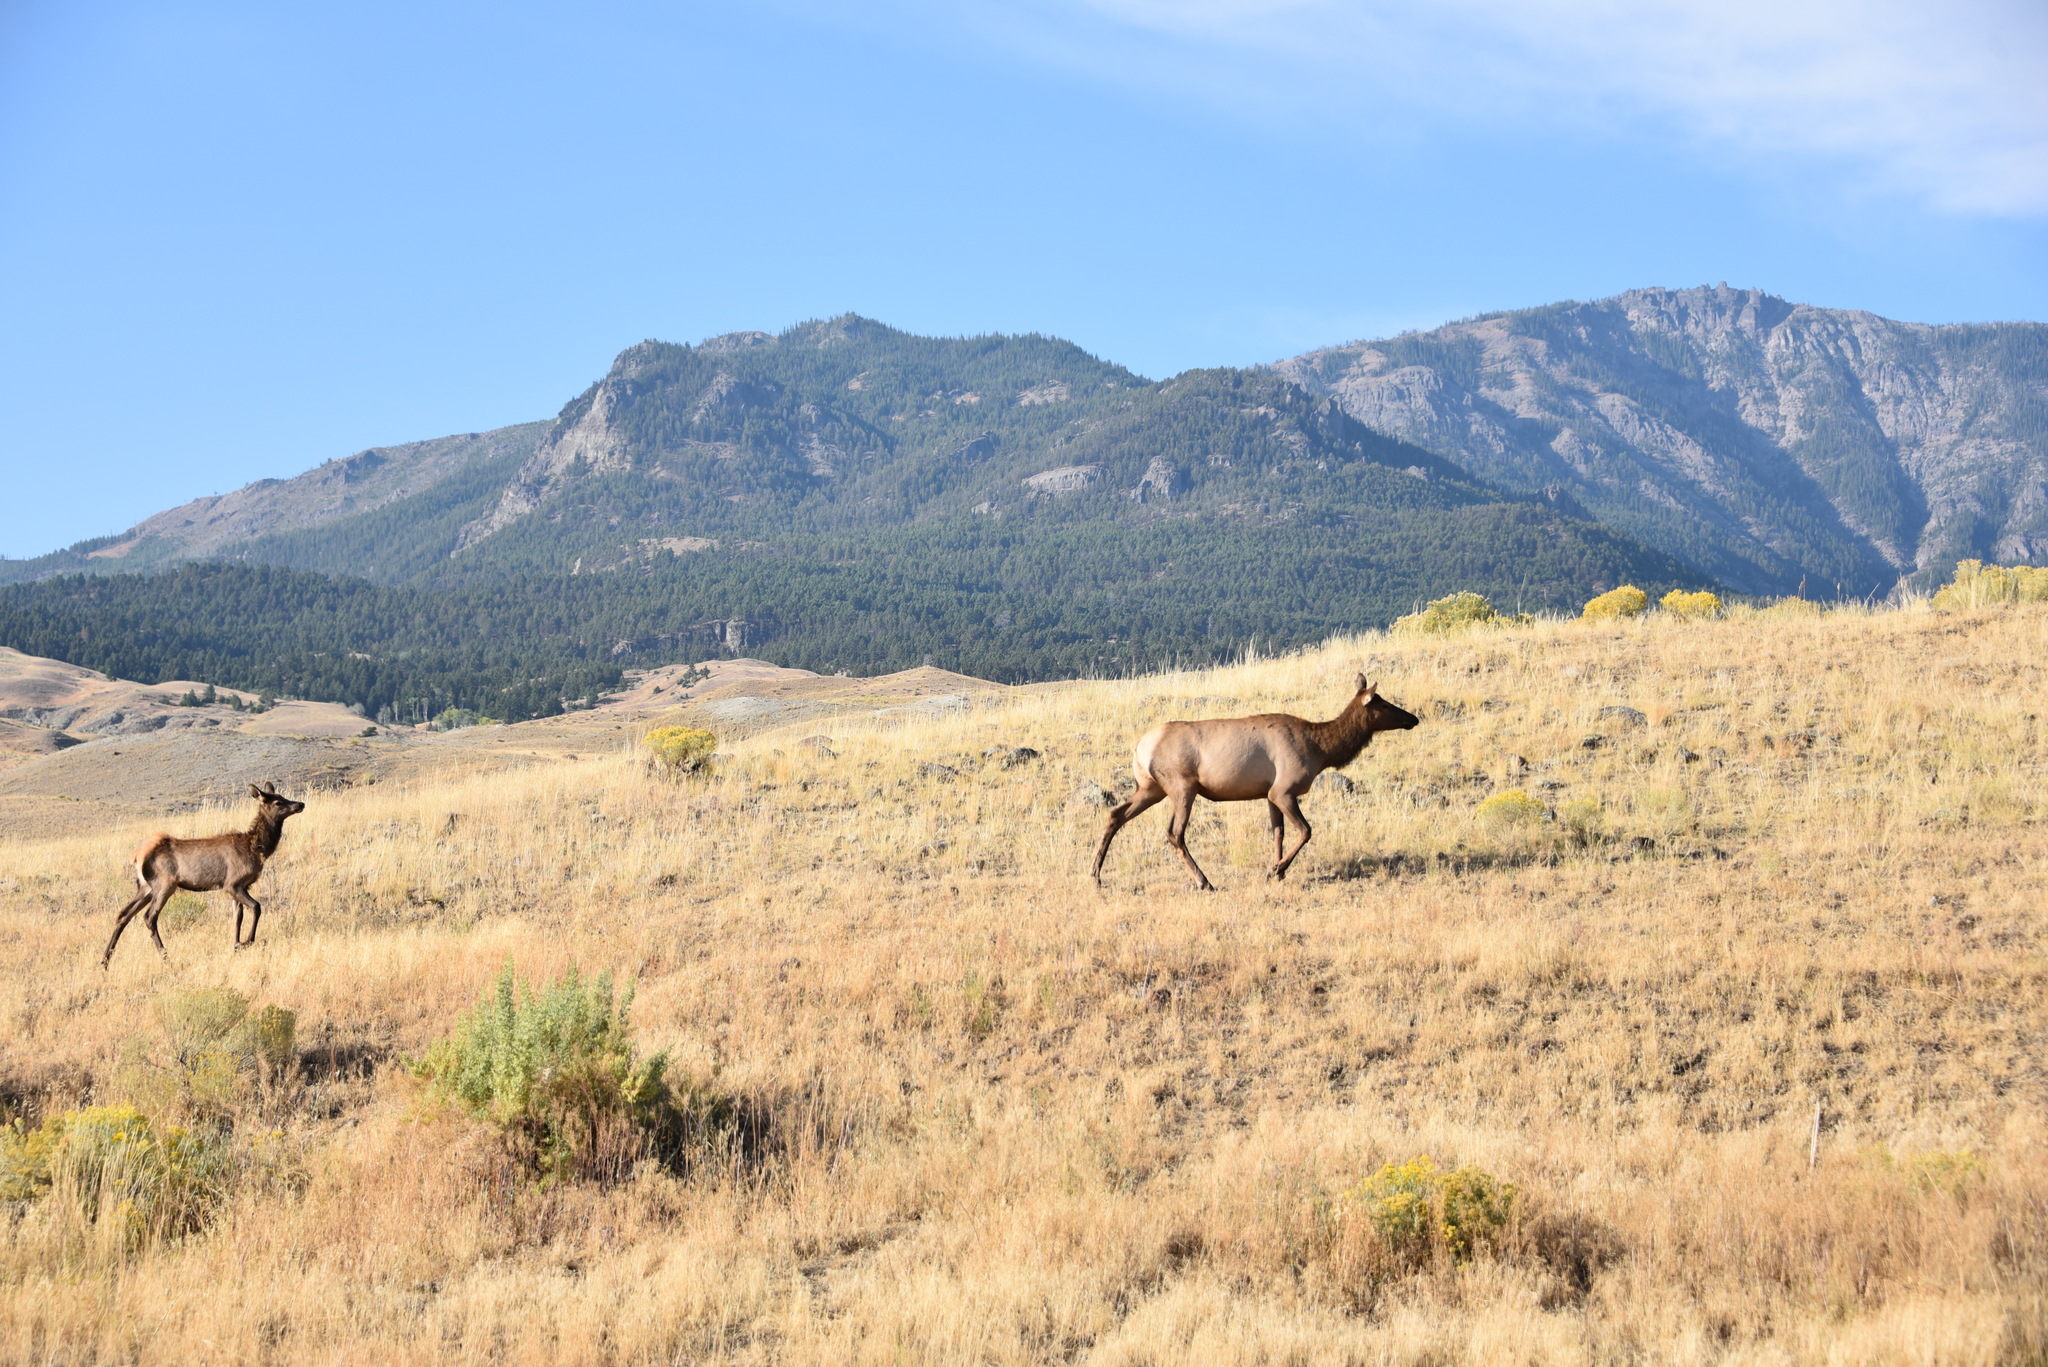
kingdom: Animalia
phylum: Chordata
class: Mammalia
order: Artiodactyla
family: Cervidae
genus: Cervus
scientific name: Cervus elaphus
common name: Red deer
